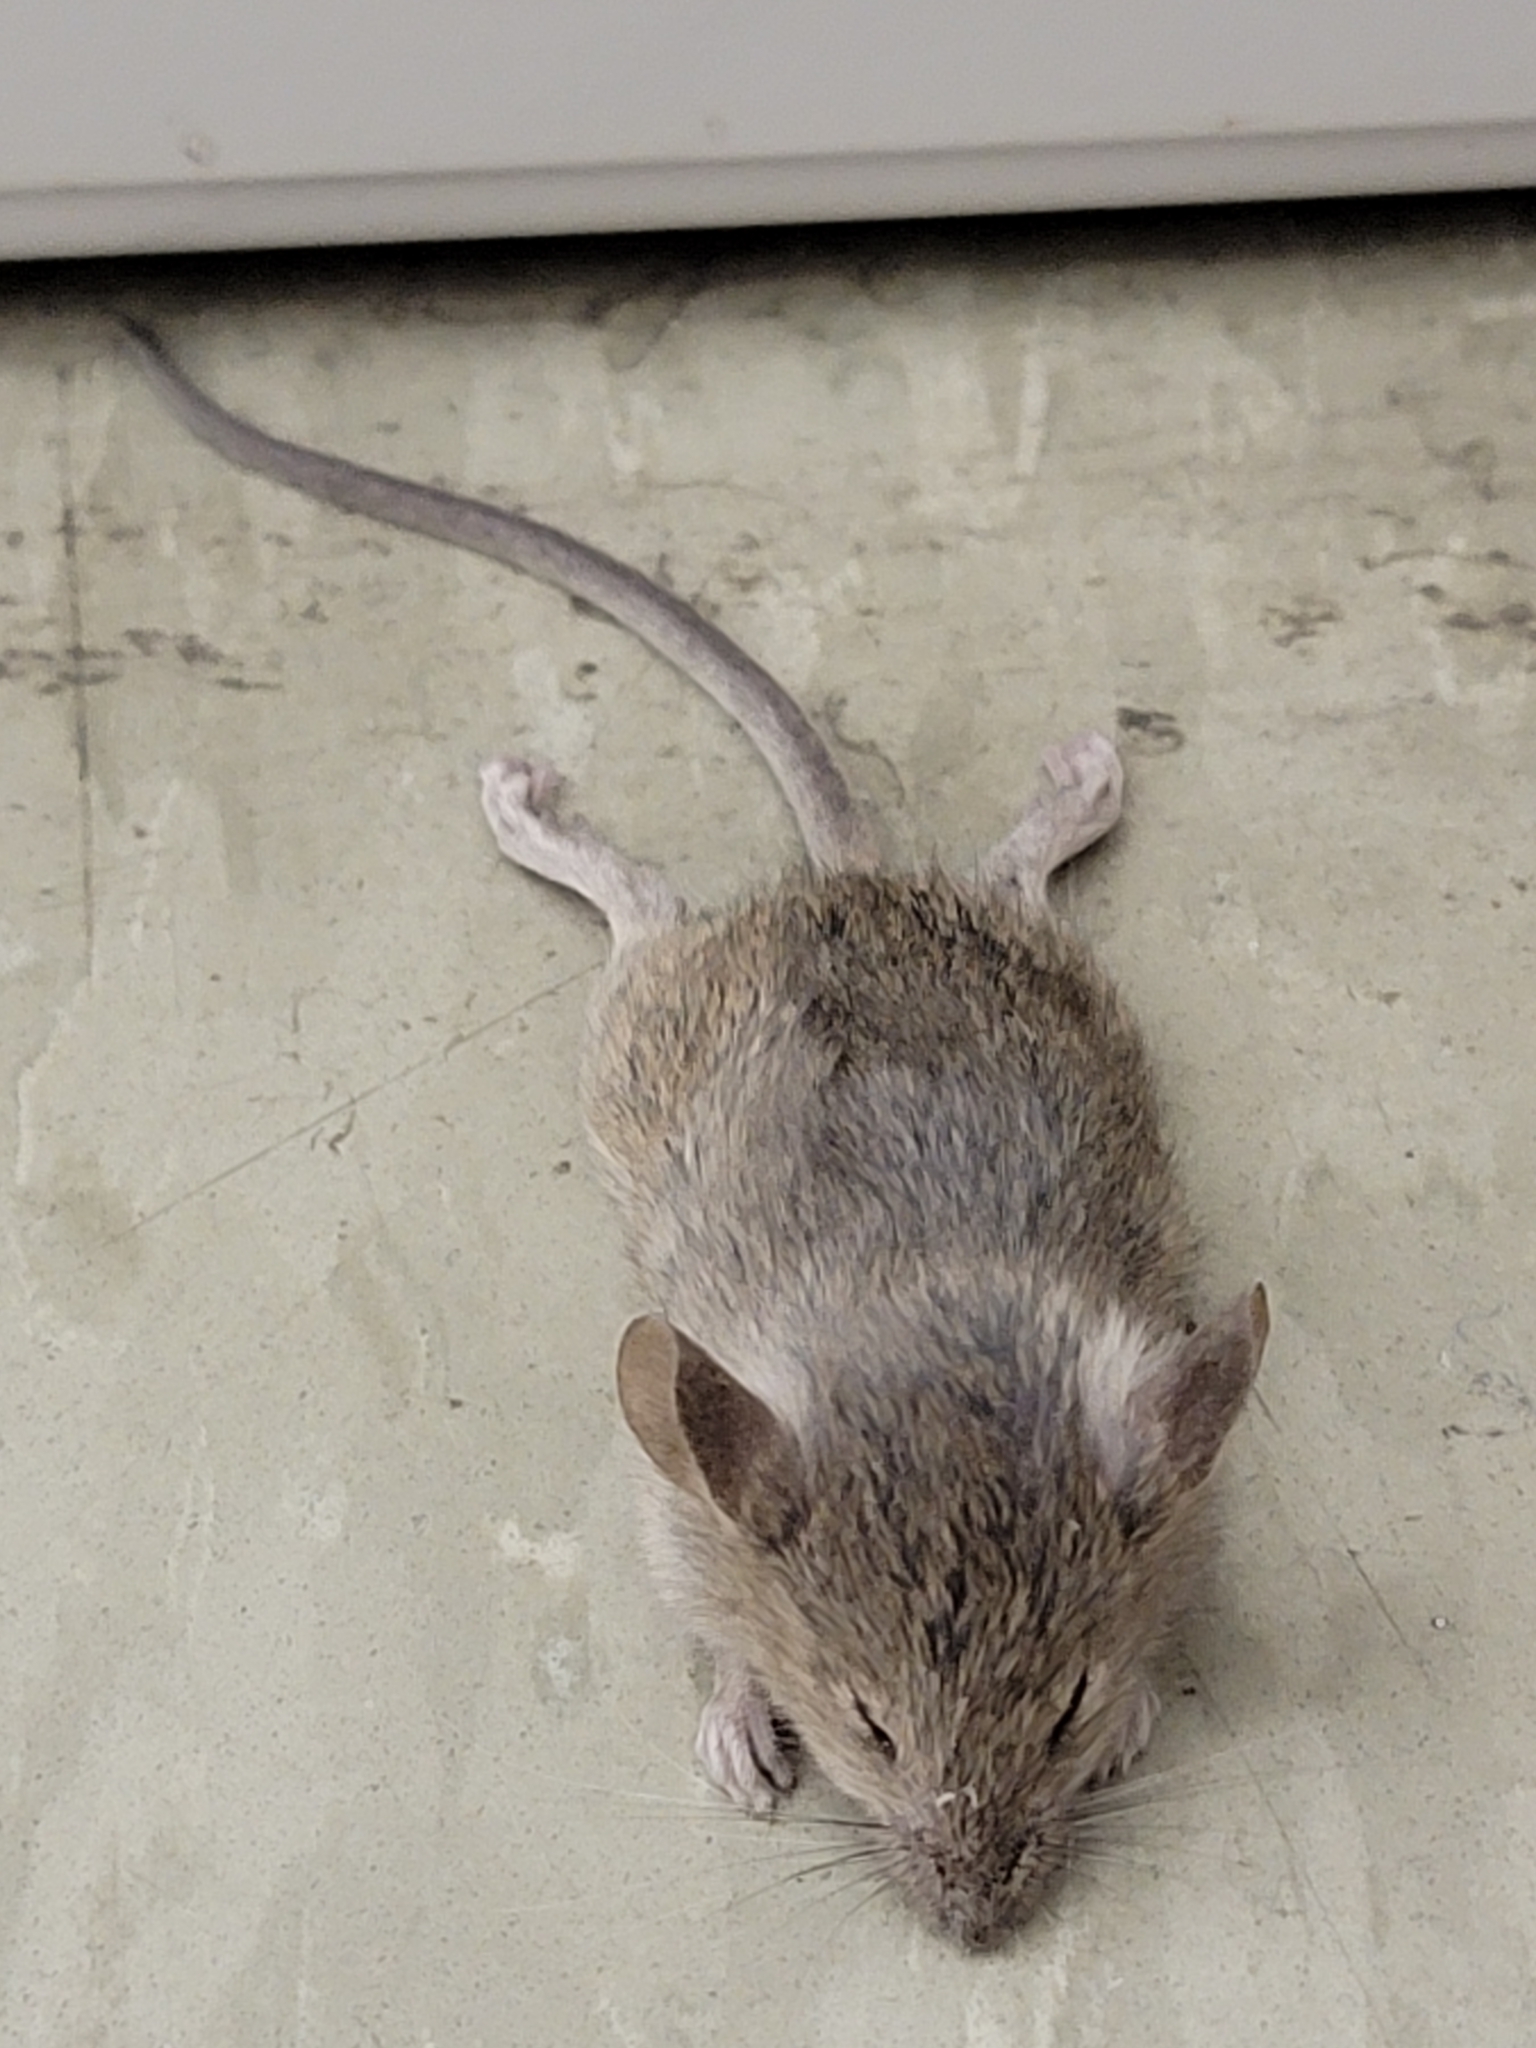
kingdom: Animalia
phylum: Chordata
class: Mammalia
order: Rodentia
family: Muridae
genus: Mus
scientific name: Mus musculus
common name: House mouse
